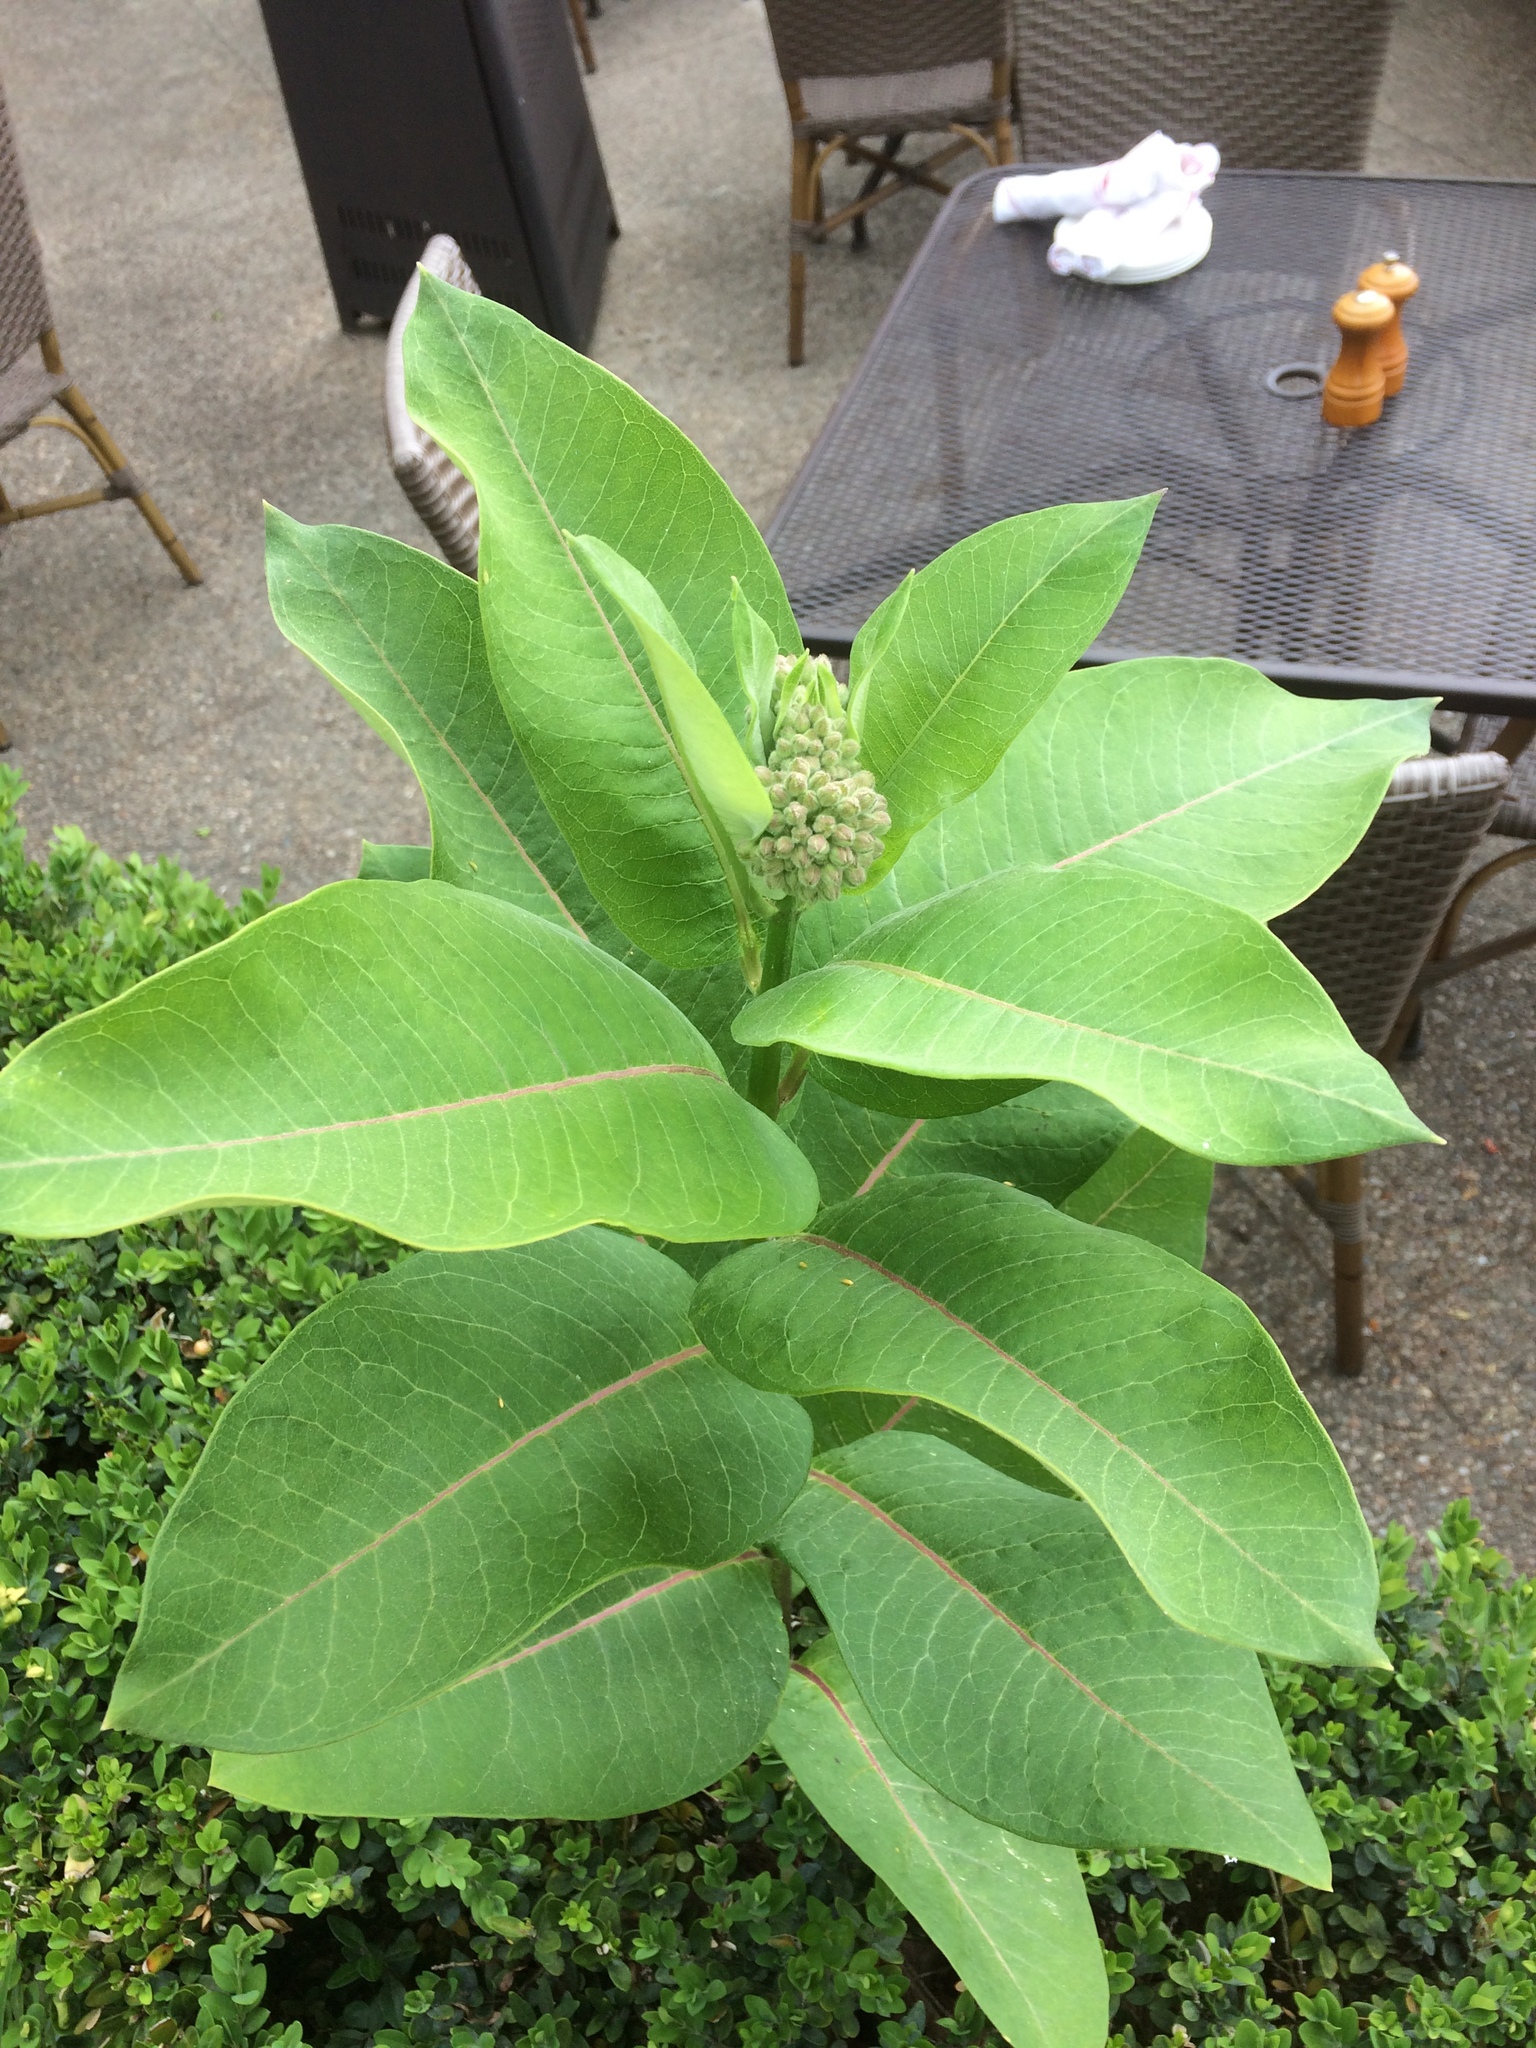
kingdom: Plantae
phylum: Tracheophyta
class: Magnoliopsida
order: Gentianales
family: Apocynaceae
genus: Asclepias
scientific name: Asclepias syriaca
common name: Common milkweed
